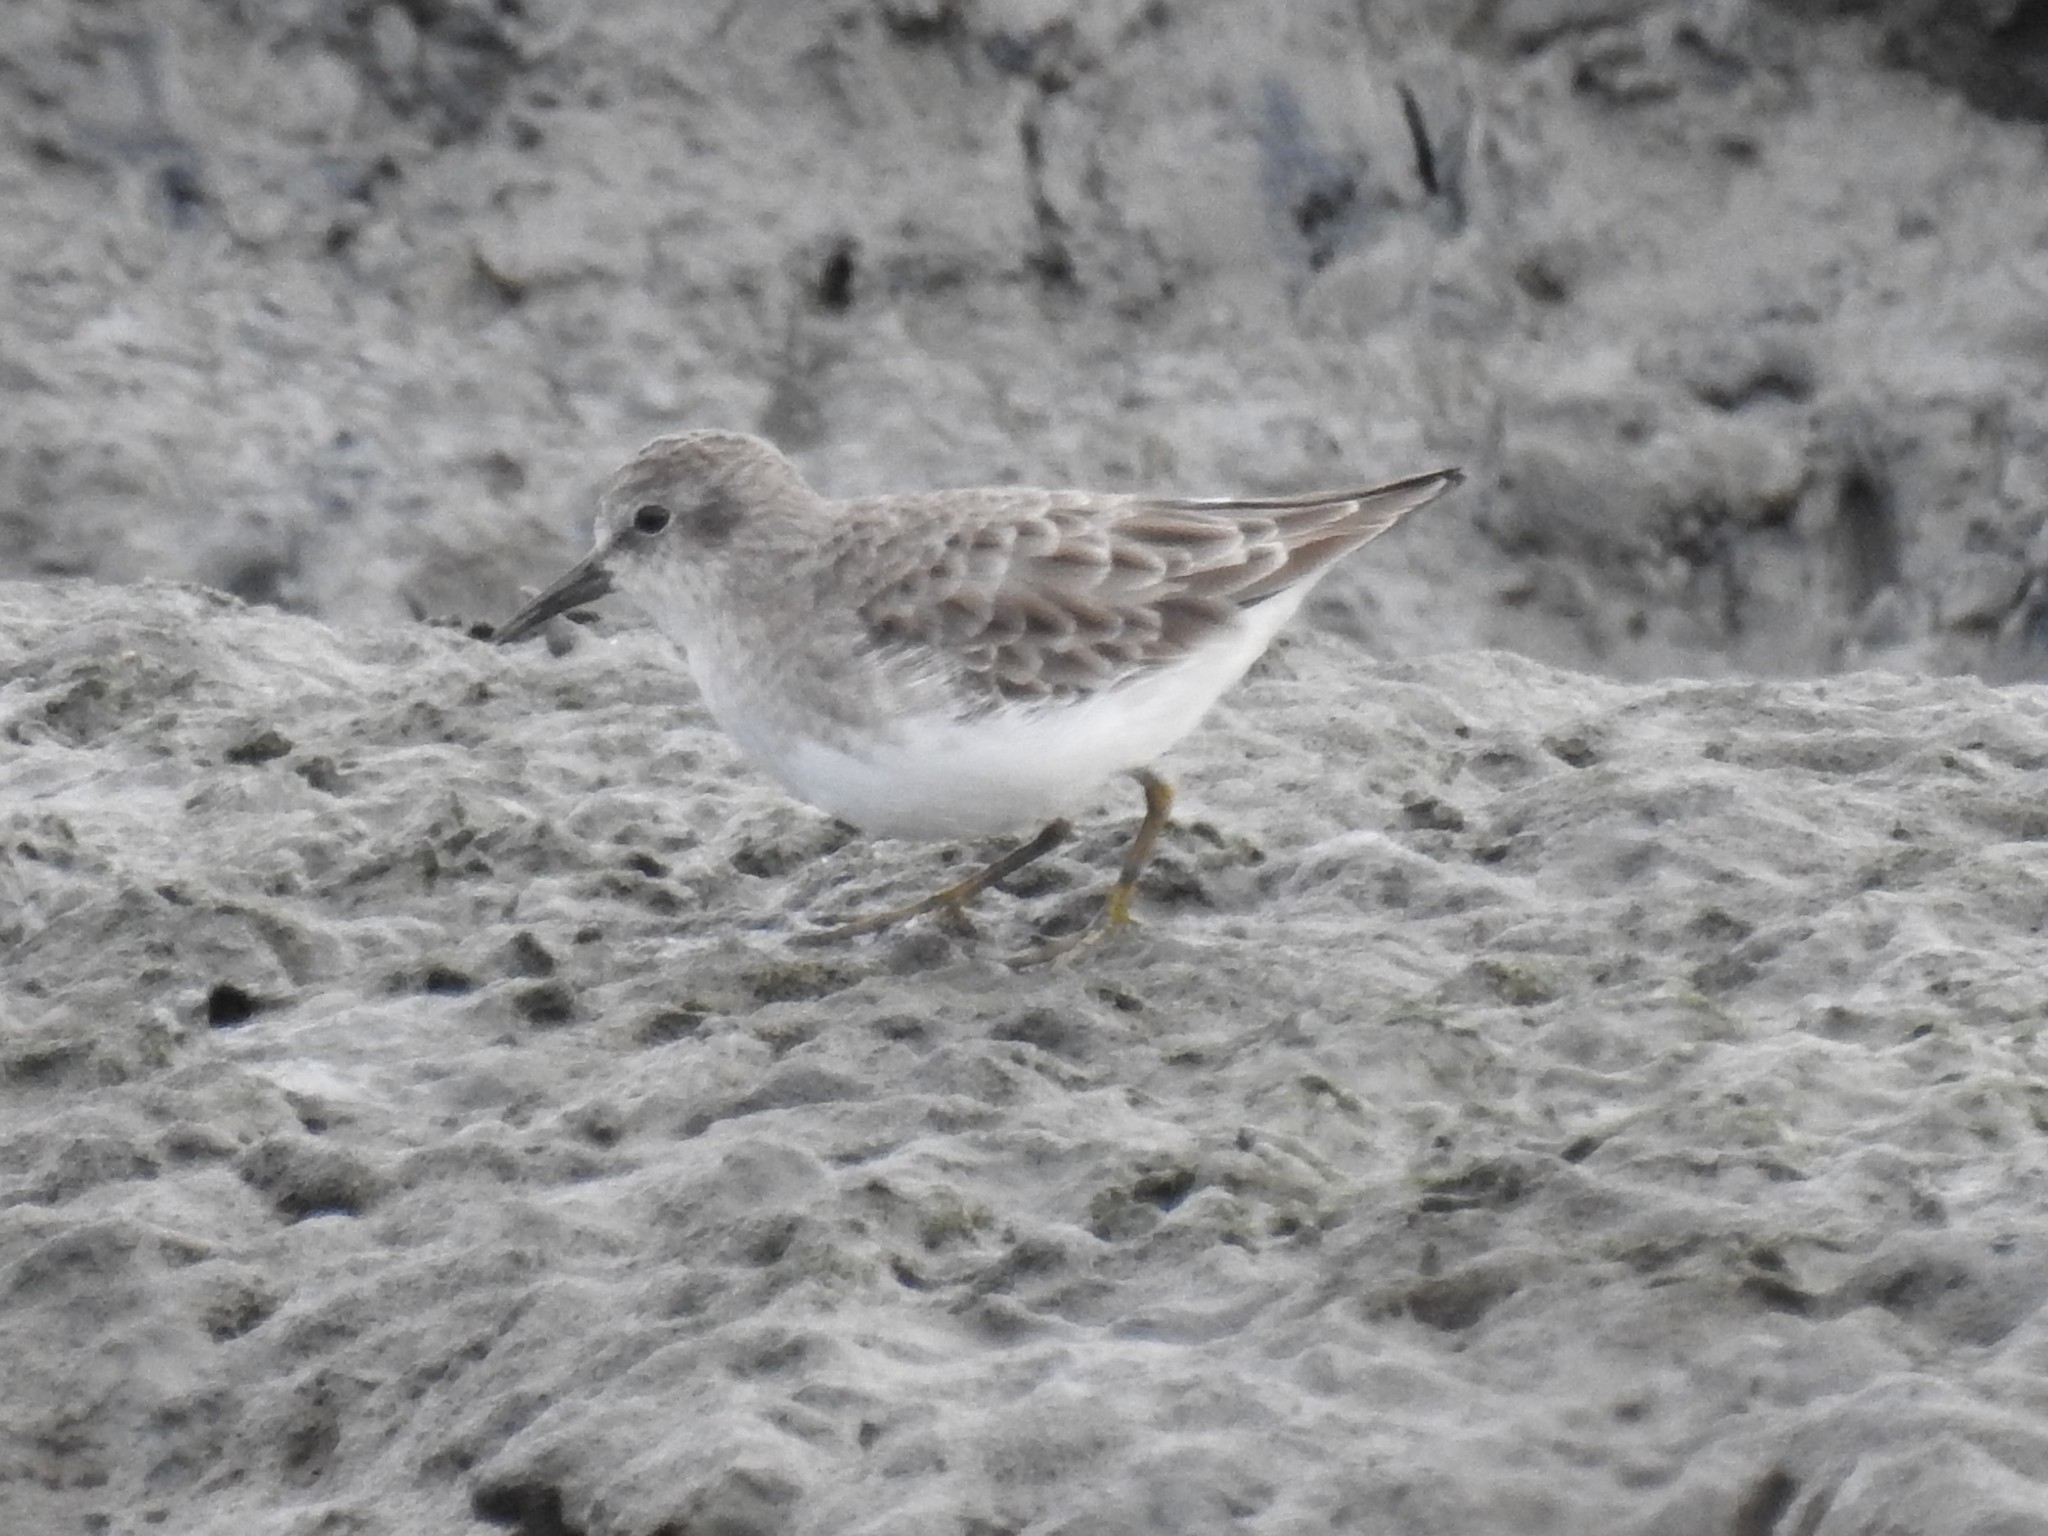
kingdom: Animalia
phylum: Chordata
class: Aves
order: Charadriiformes
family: Scolopacidae
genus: Calidris
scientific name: Calidris minutilla
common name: Least sandpiper
